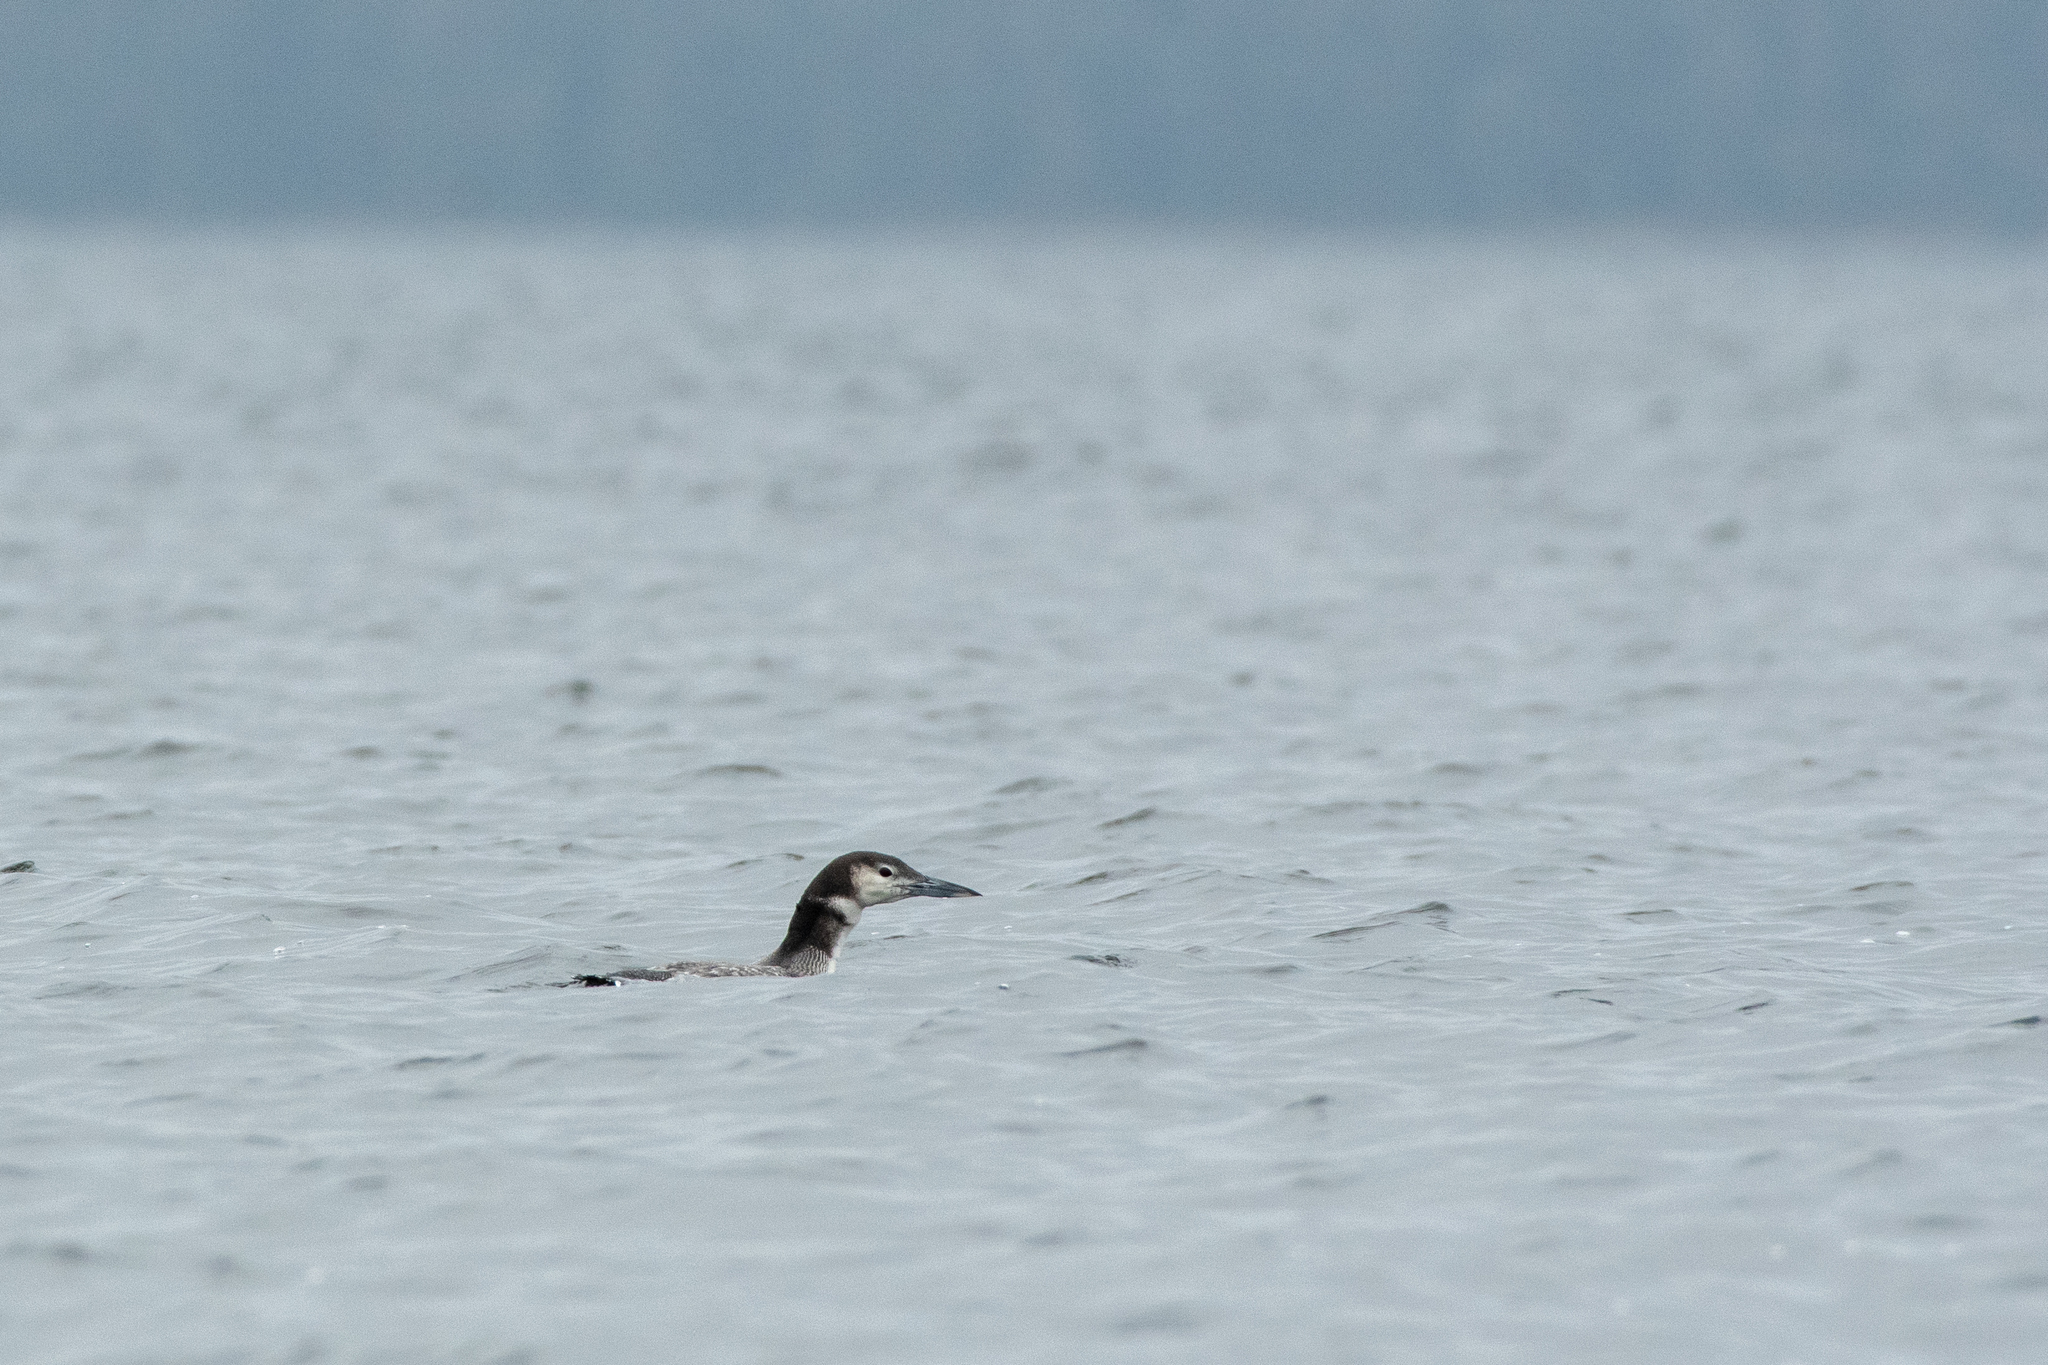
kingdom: Animalia
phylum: Chordata
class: Aves
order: Gaviiformes
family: Gaviidae
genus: Gavia
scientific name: Gavia immer
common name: Common loon
